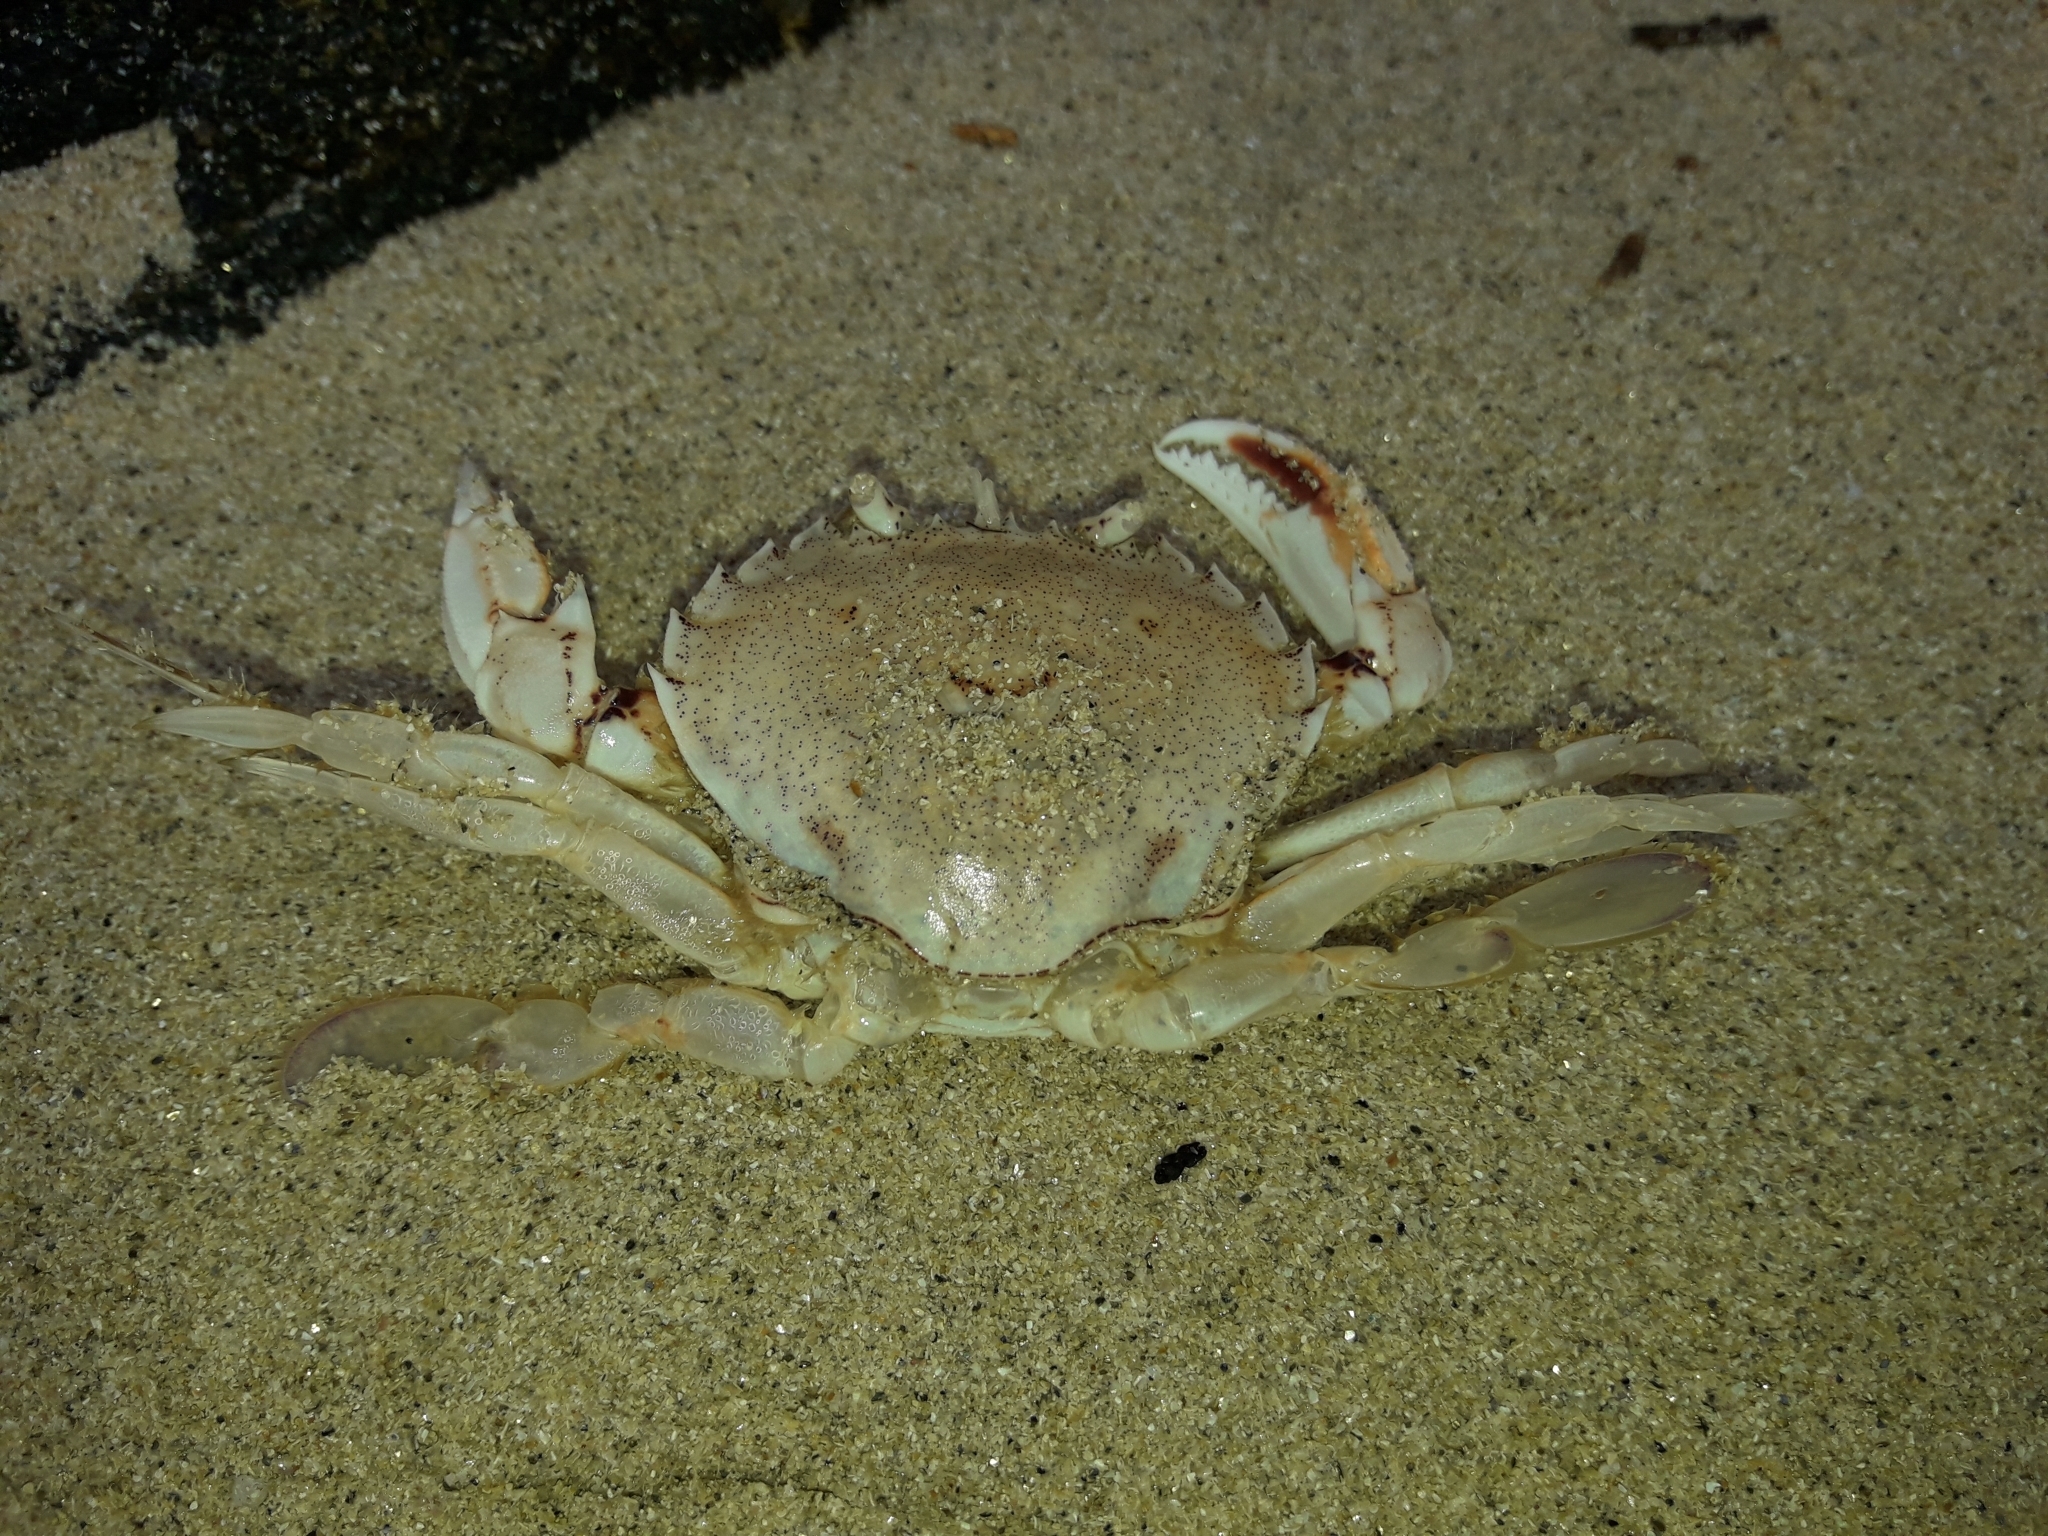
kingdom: Animalia
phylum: Arthropoda
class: Malacostraca
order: Decapoda
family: Ovalipidae
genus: Ovalipes
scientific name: Ovalipes catharus
